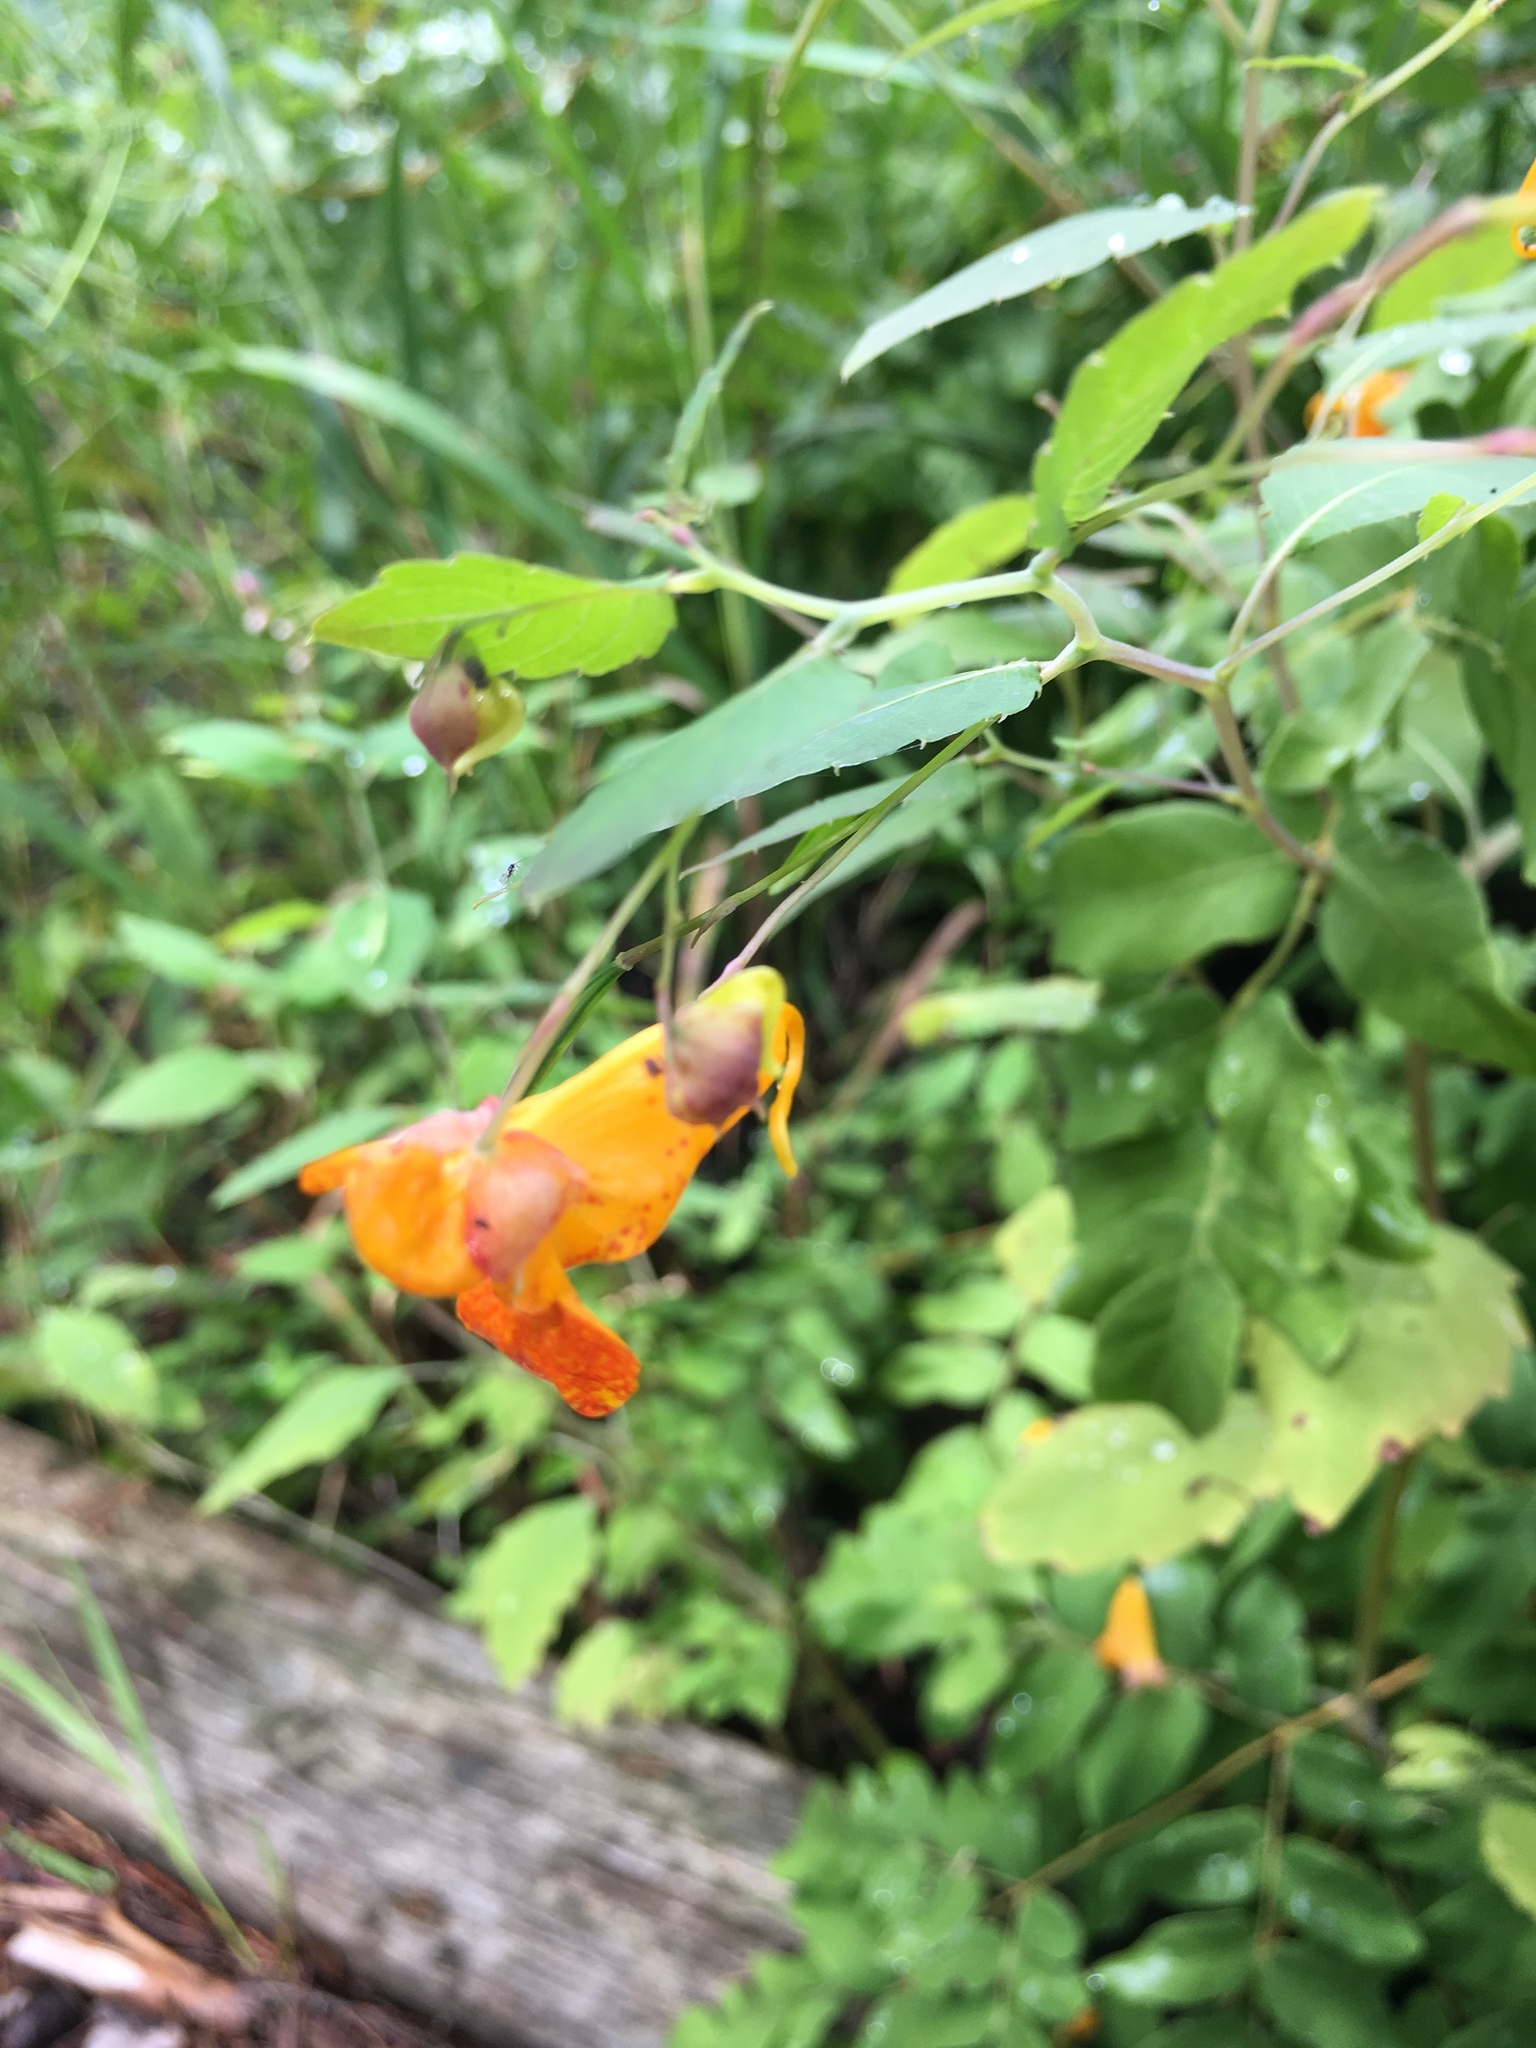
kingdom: Plantae
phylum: Tracheophyta
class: Magnoliopsida
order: Ericales
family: Balsaminaceae
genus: Impatiens
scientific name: Impatiens capensis
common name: Orange balsam
